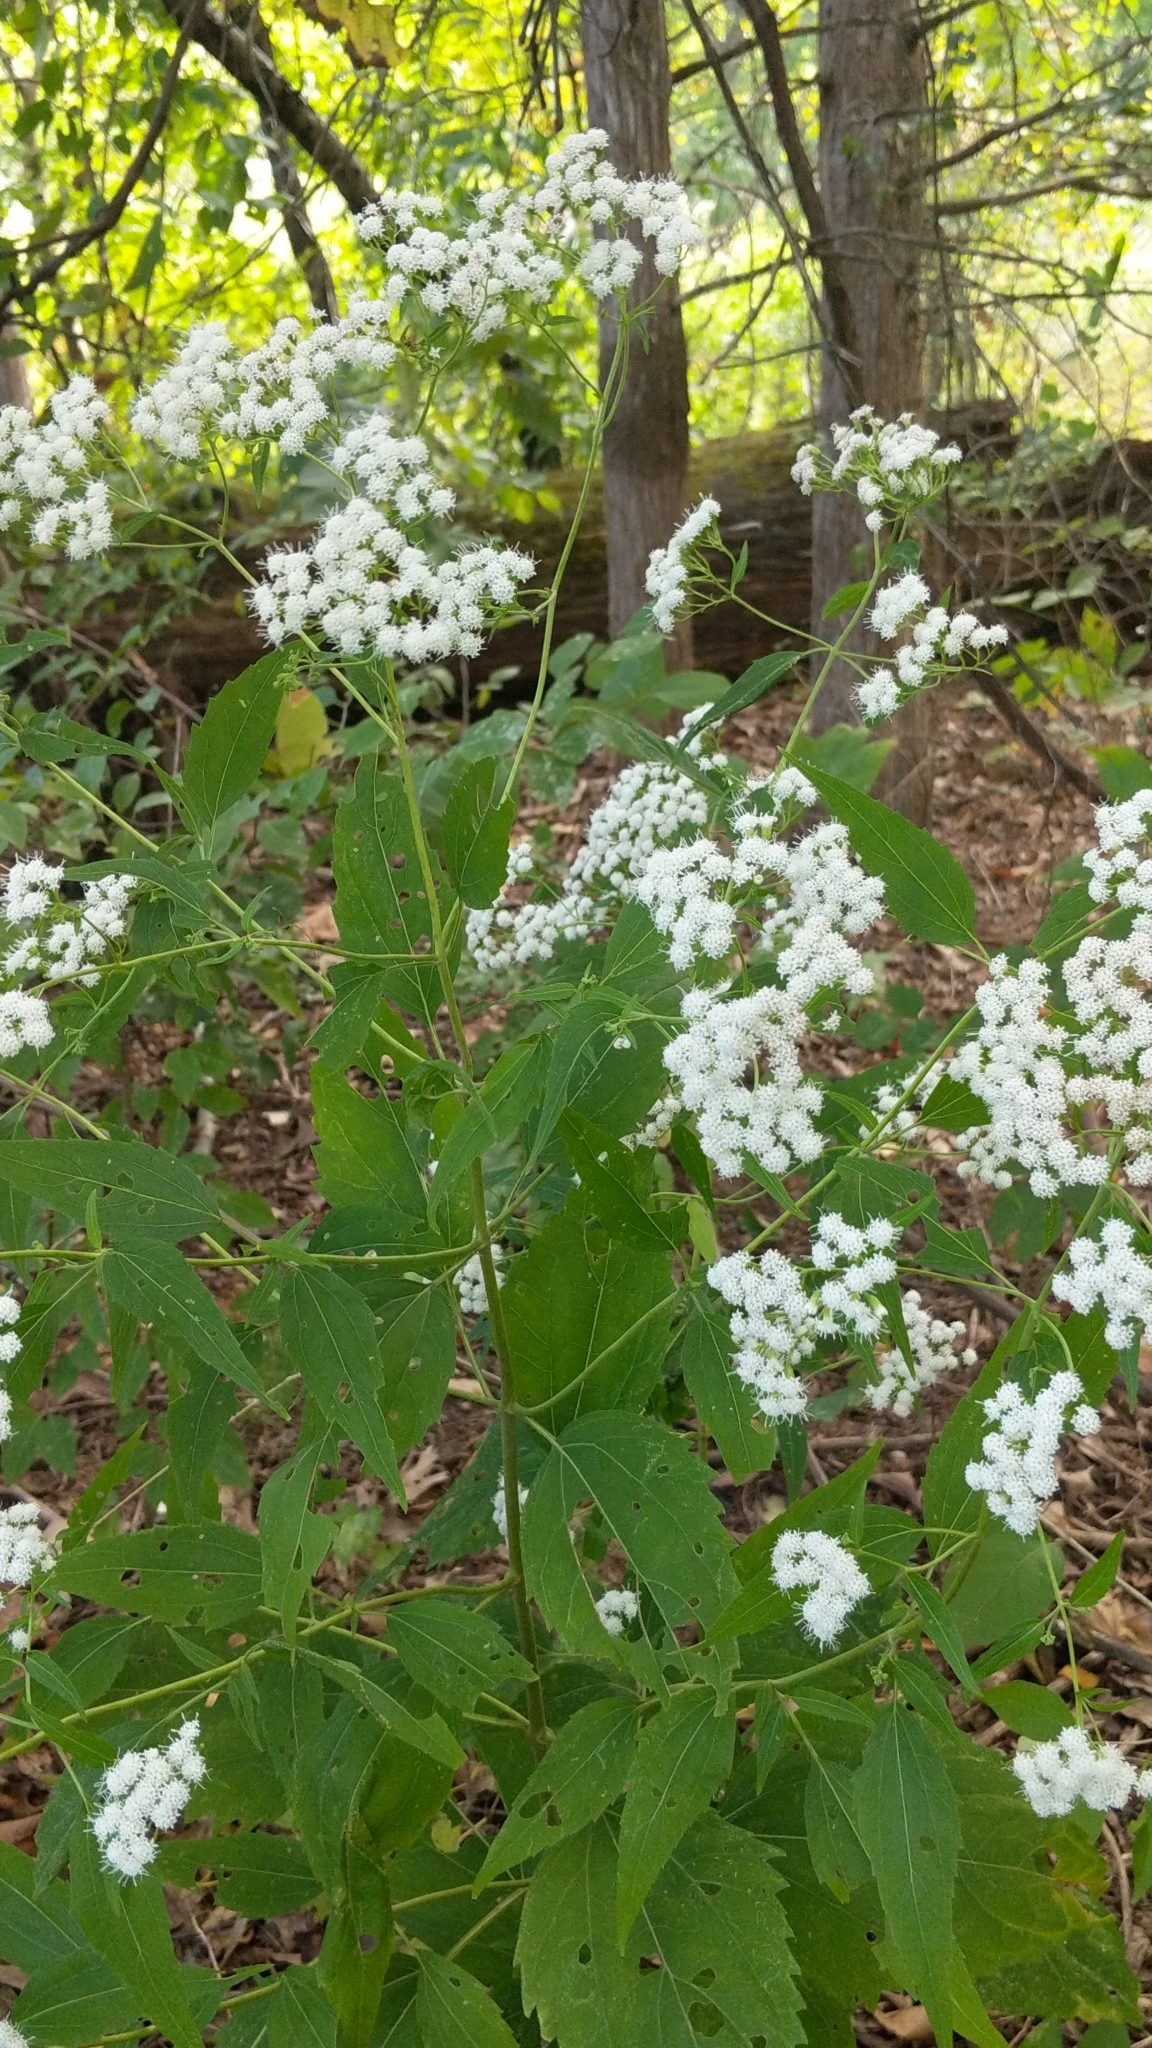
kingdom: Plantae
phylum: Tracheophyta
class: Magnoliopsida
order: Asterales
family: Asteraceae
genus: Ageratina
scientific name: Ageratina altissima
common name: White snakeroot
